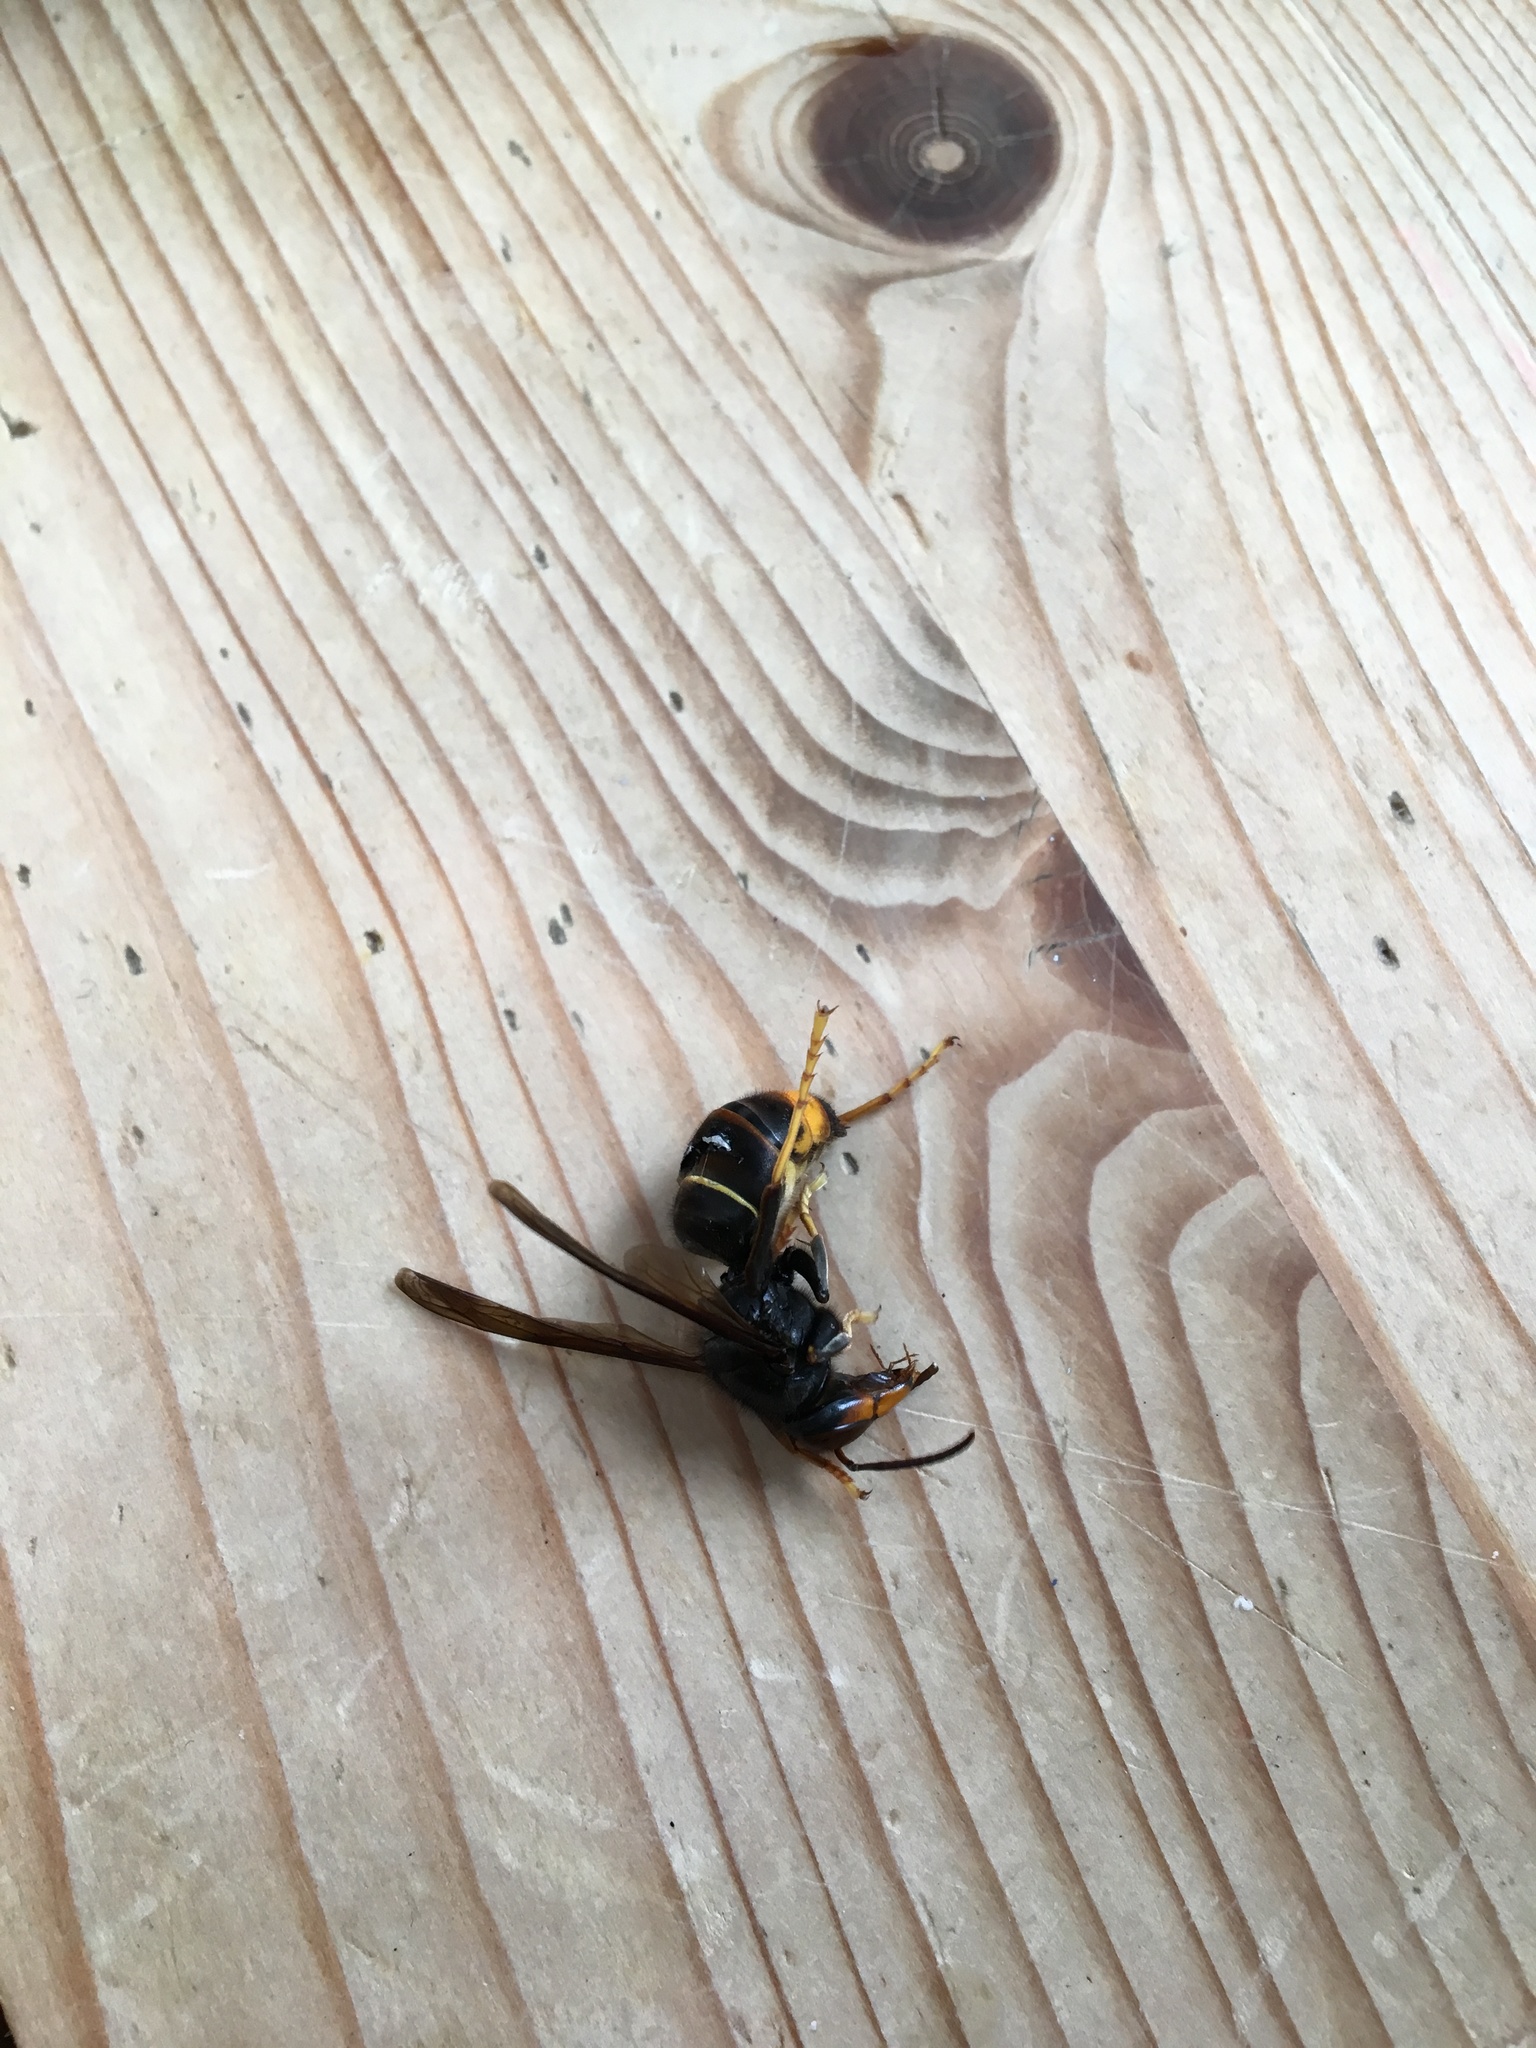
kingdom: Animalia
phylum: Arthropoda
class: Insecta
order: Hymenoptera
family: Vespidae
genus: Vespa
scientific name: Vespa velutina
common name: Asian hornet
